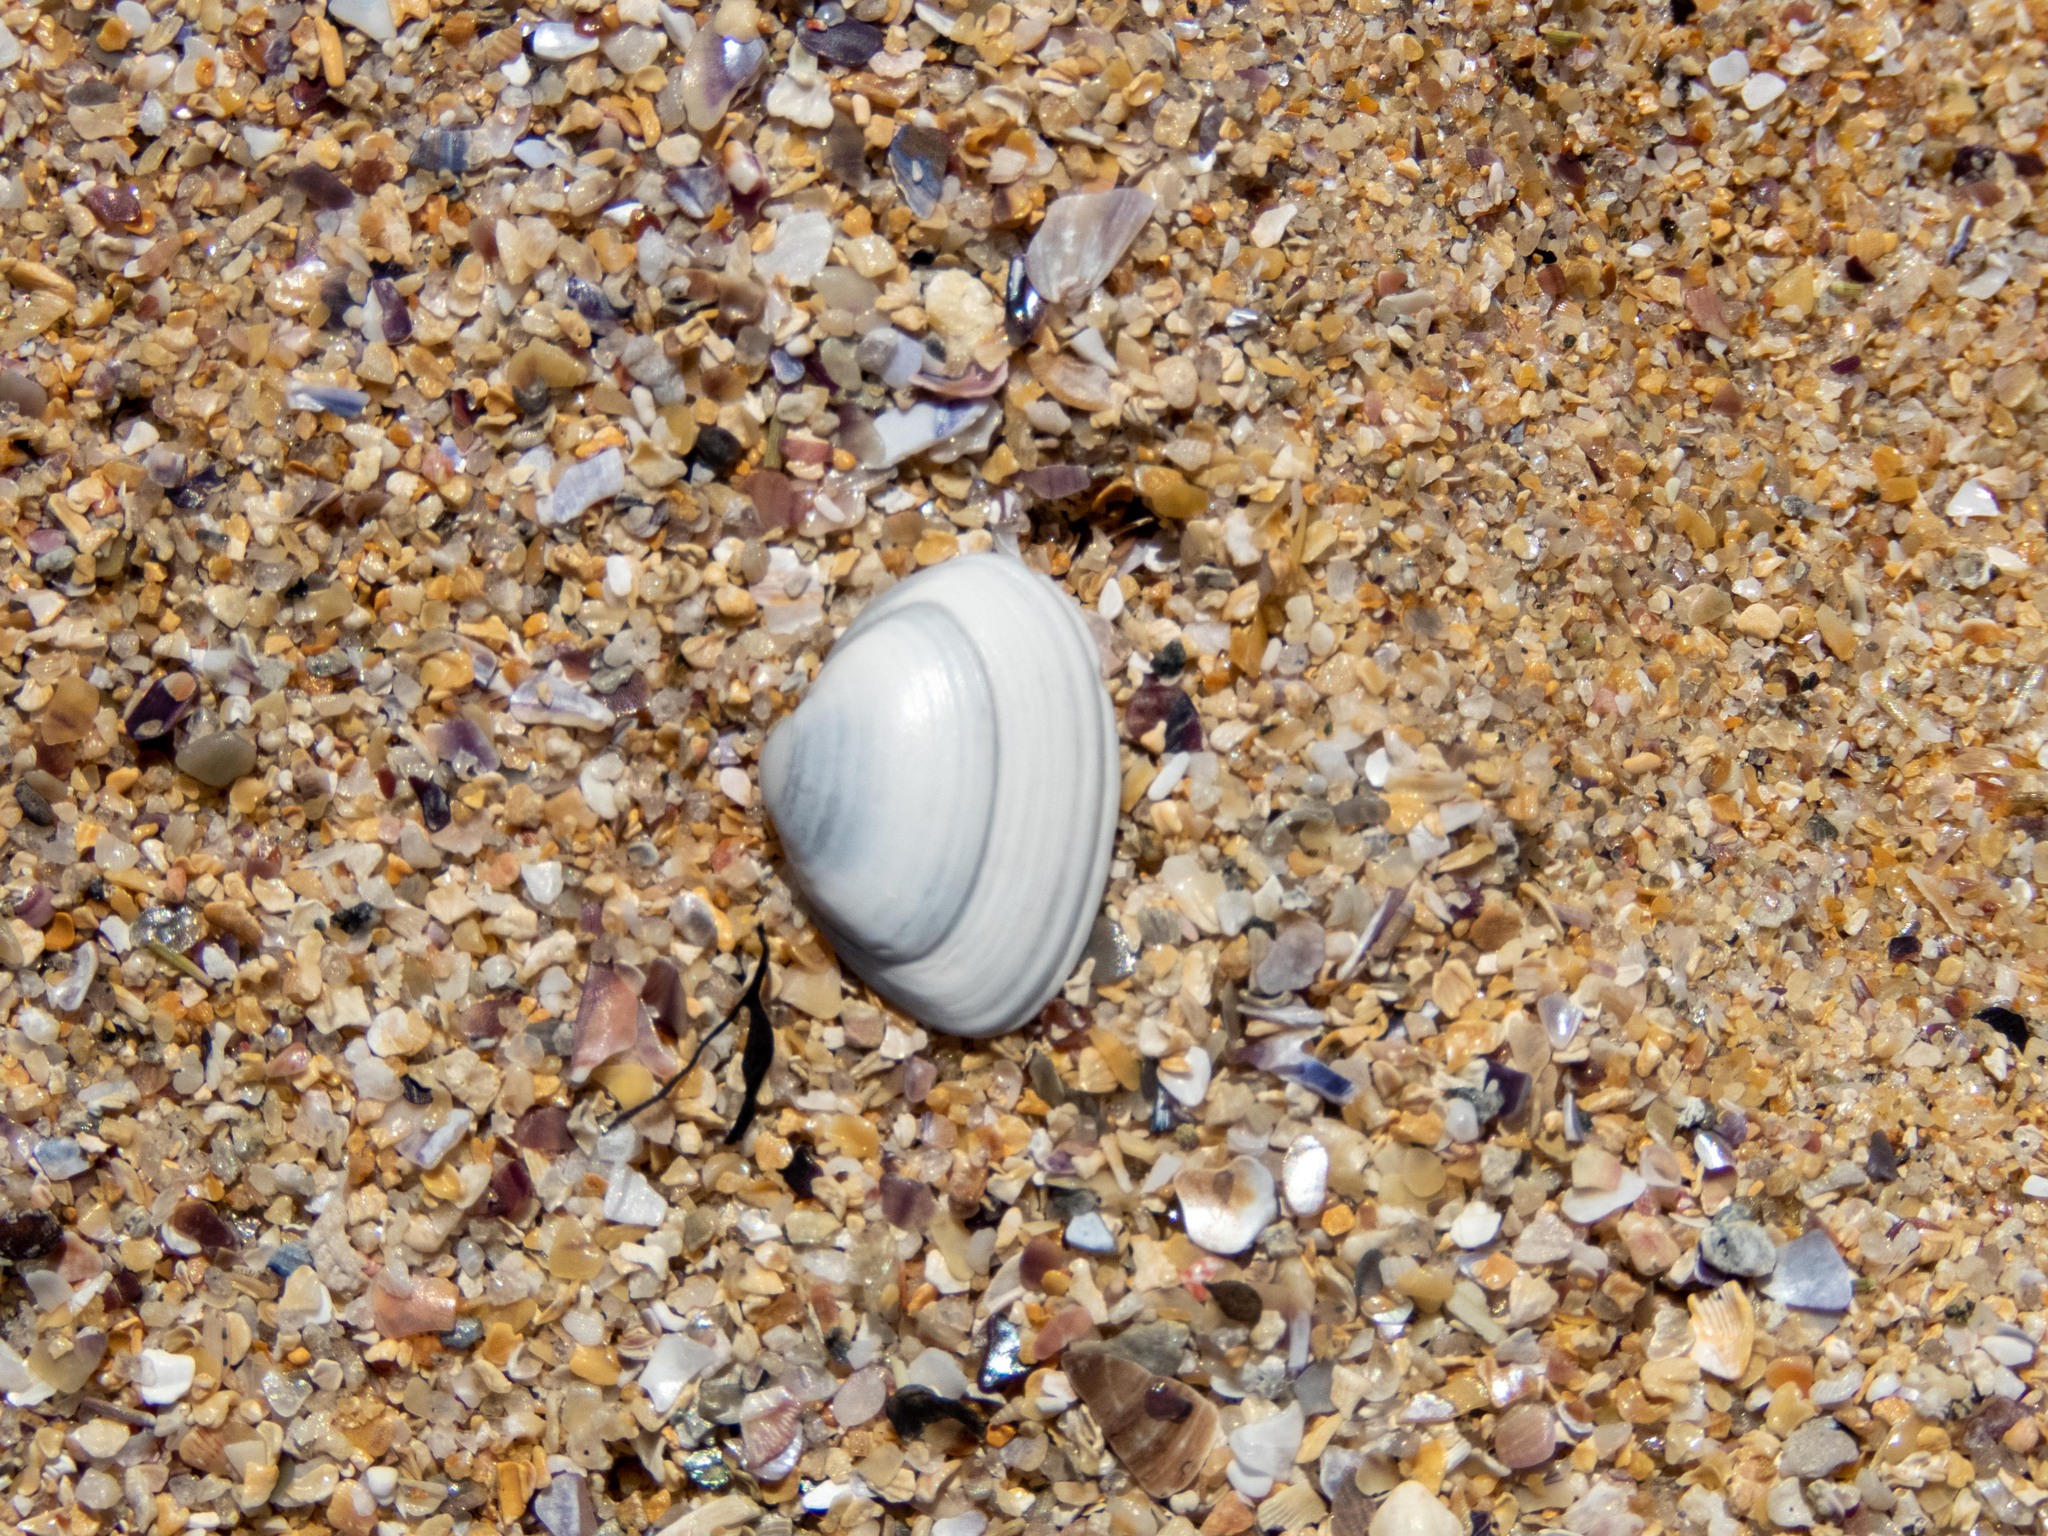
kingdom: Animalia
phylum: Mollusca
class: Bivalvia
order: Venerida
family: Mactridae
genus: Spisula
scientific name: Spisula elliptica
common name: Elliptic trough shell
